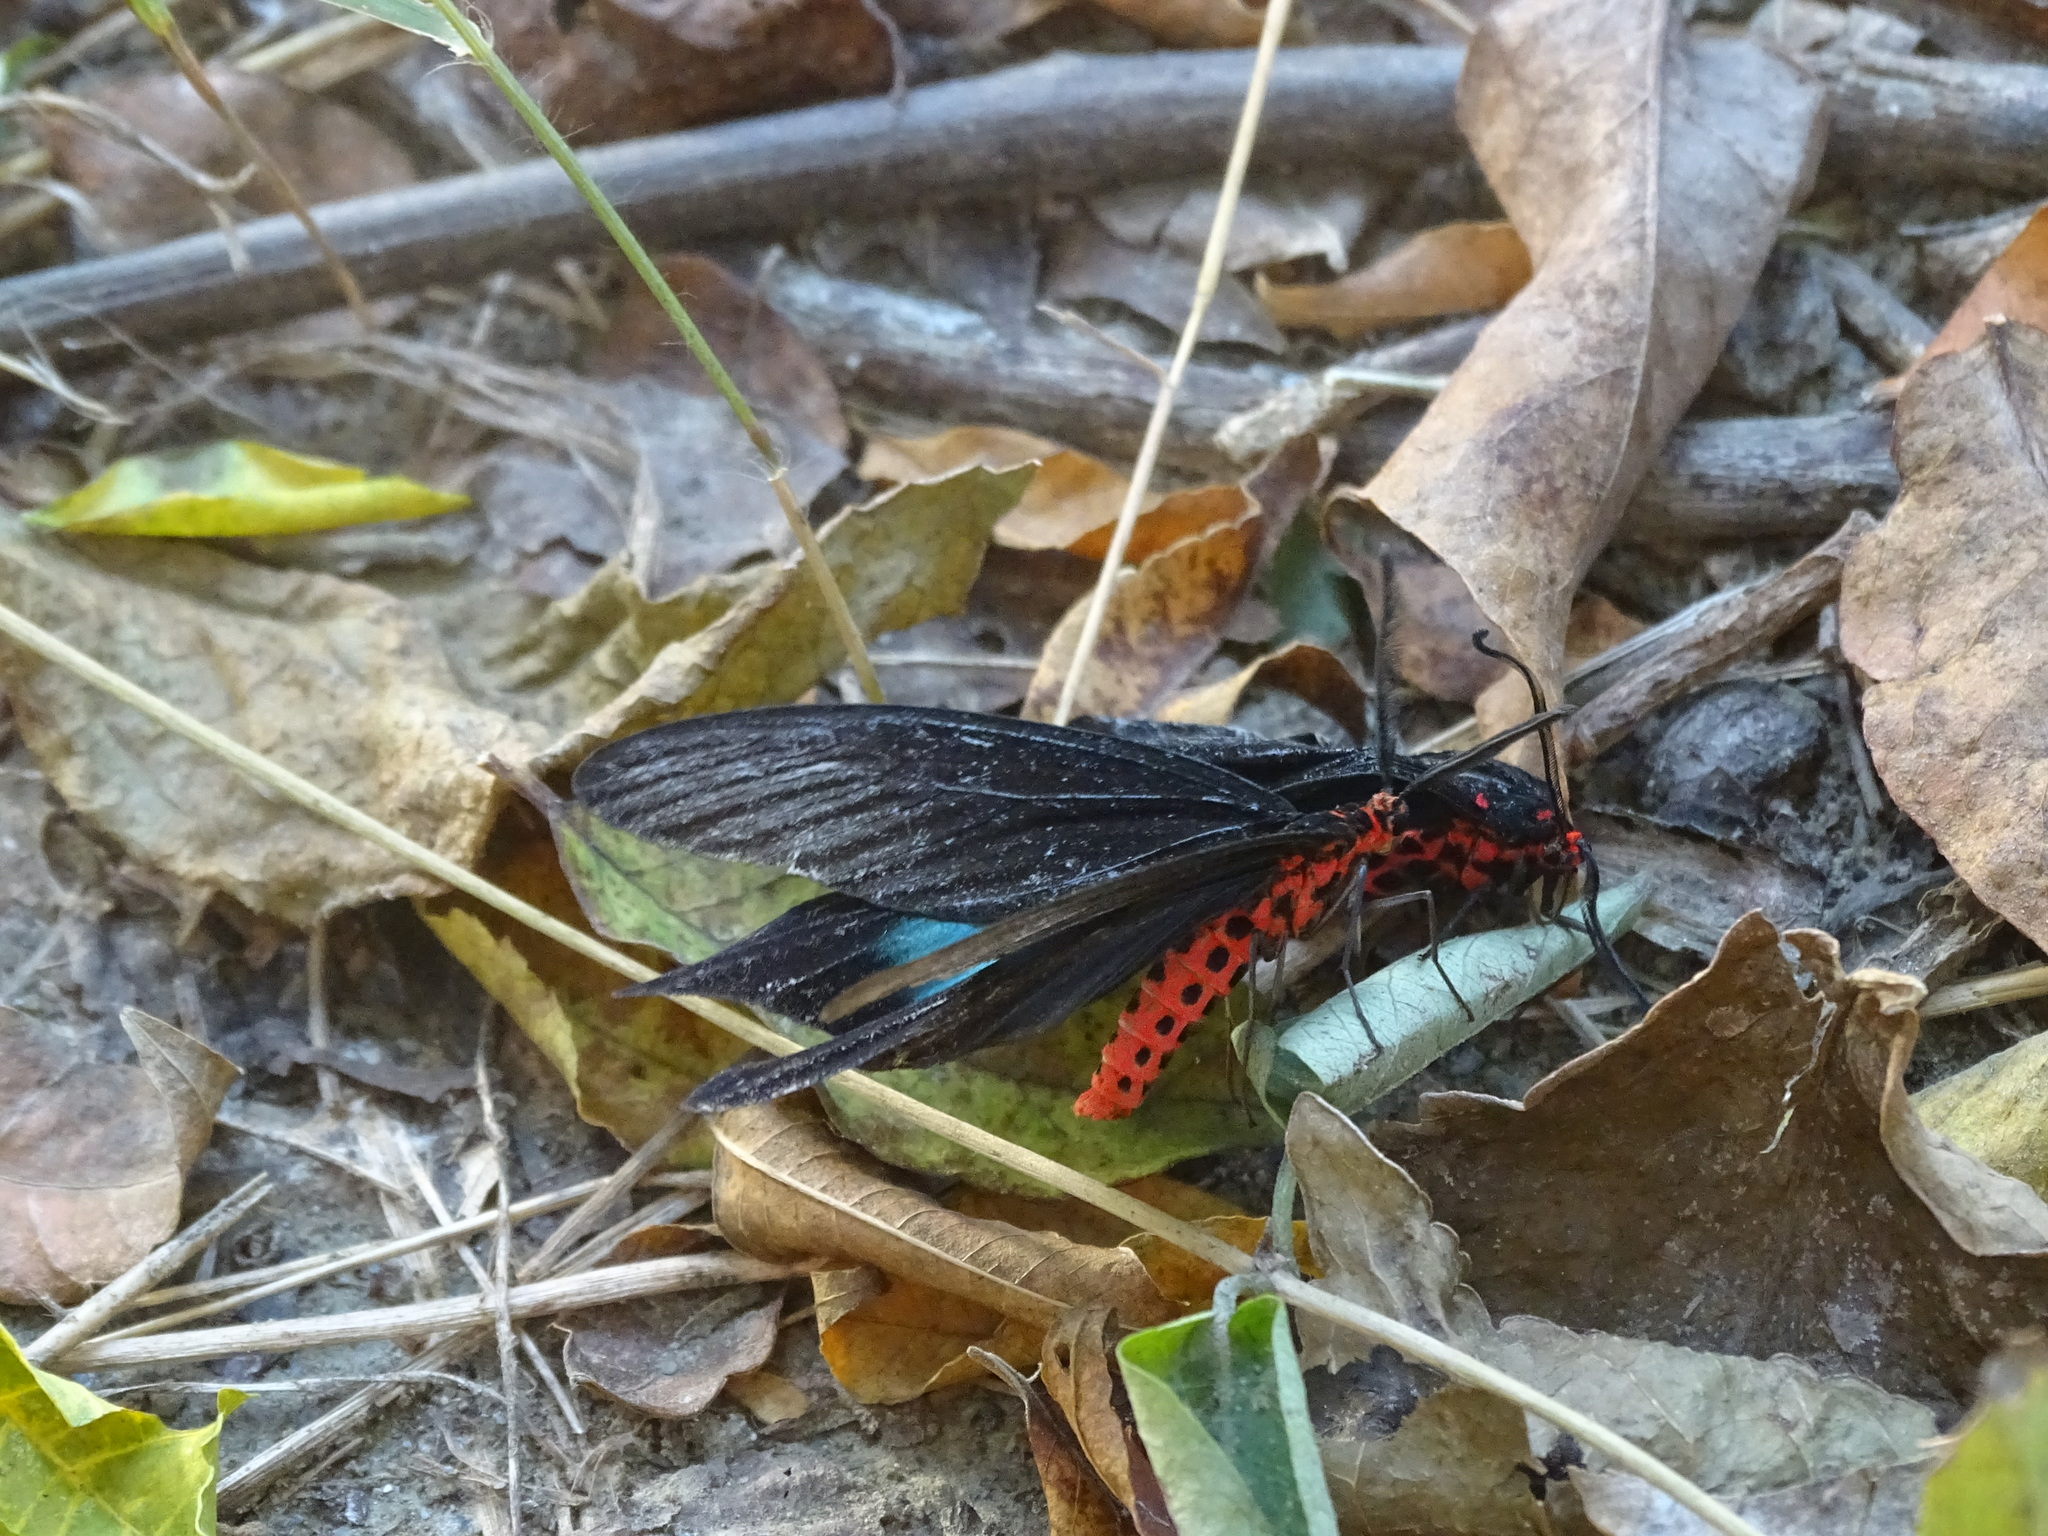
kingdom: Animalia
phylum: Arthropoda
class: Insecta
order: Lepidoptera
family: Zygaenidae
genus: Histia
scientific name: Histia flabellicornis
